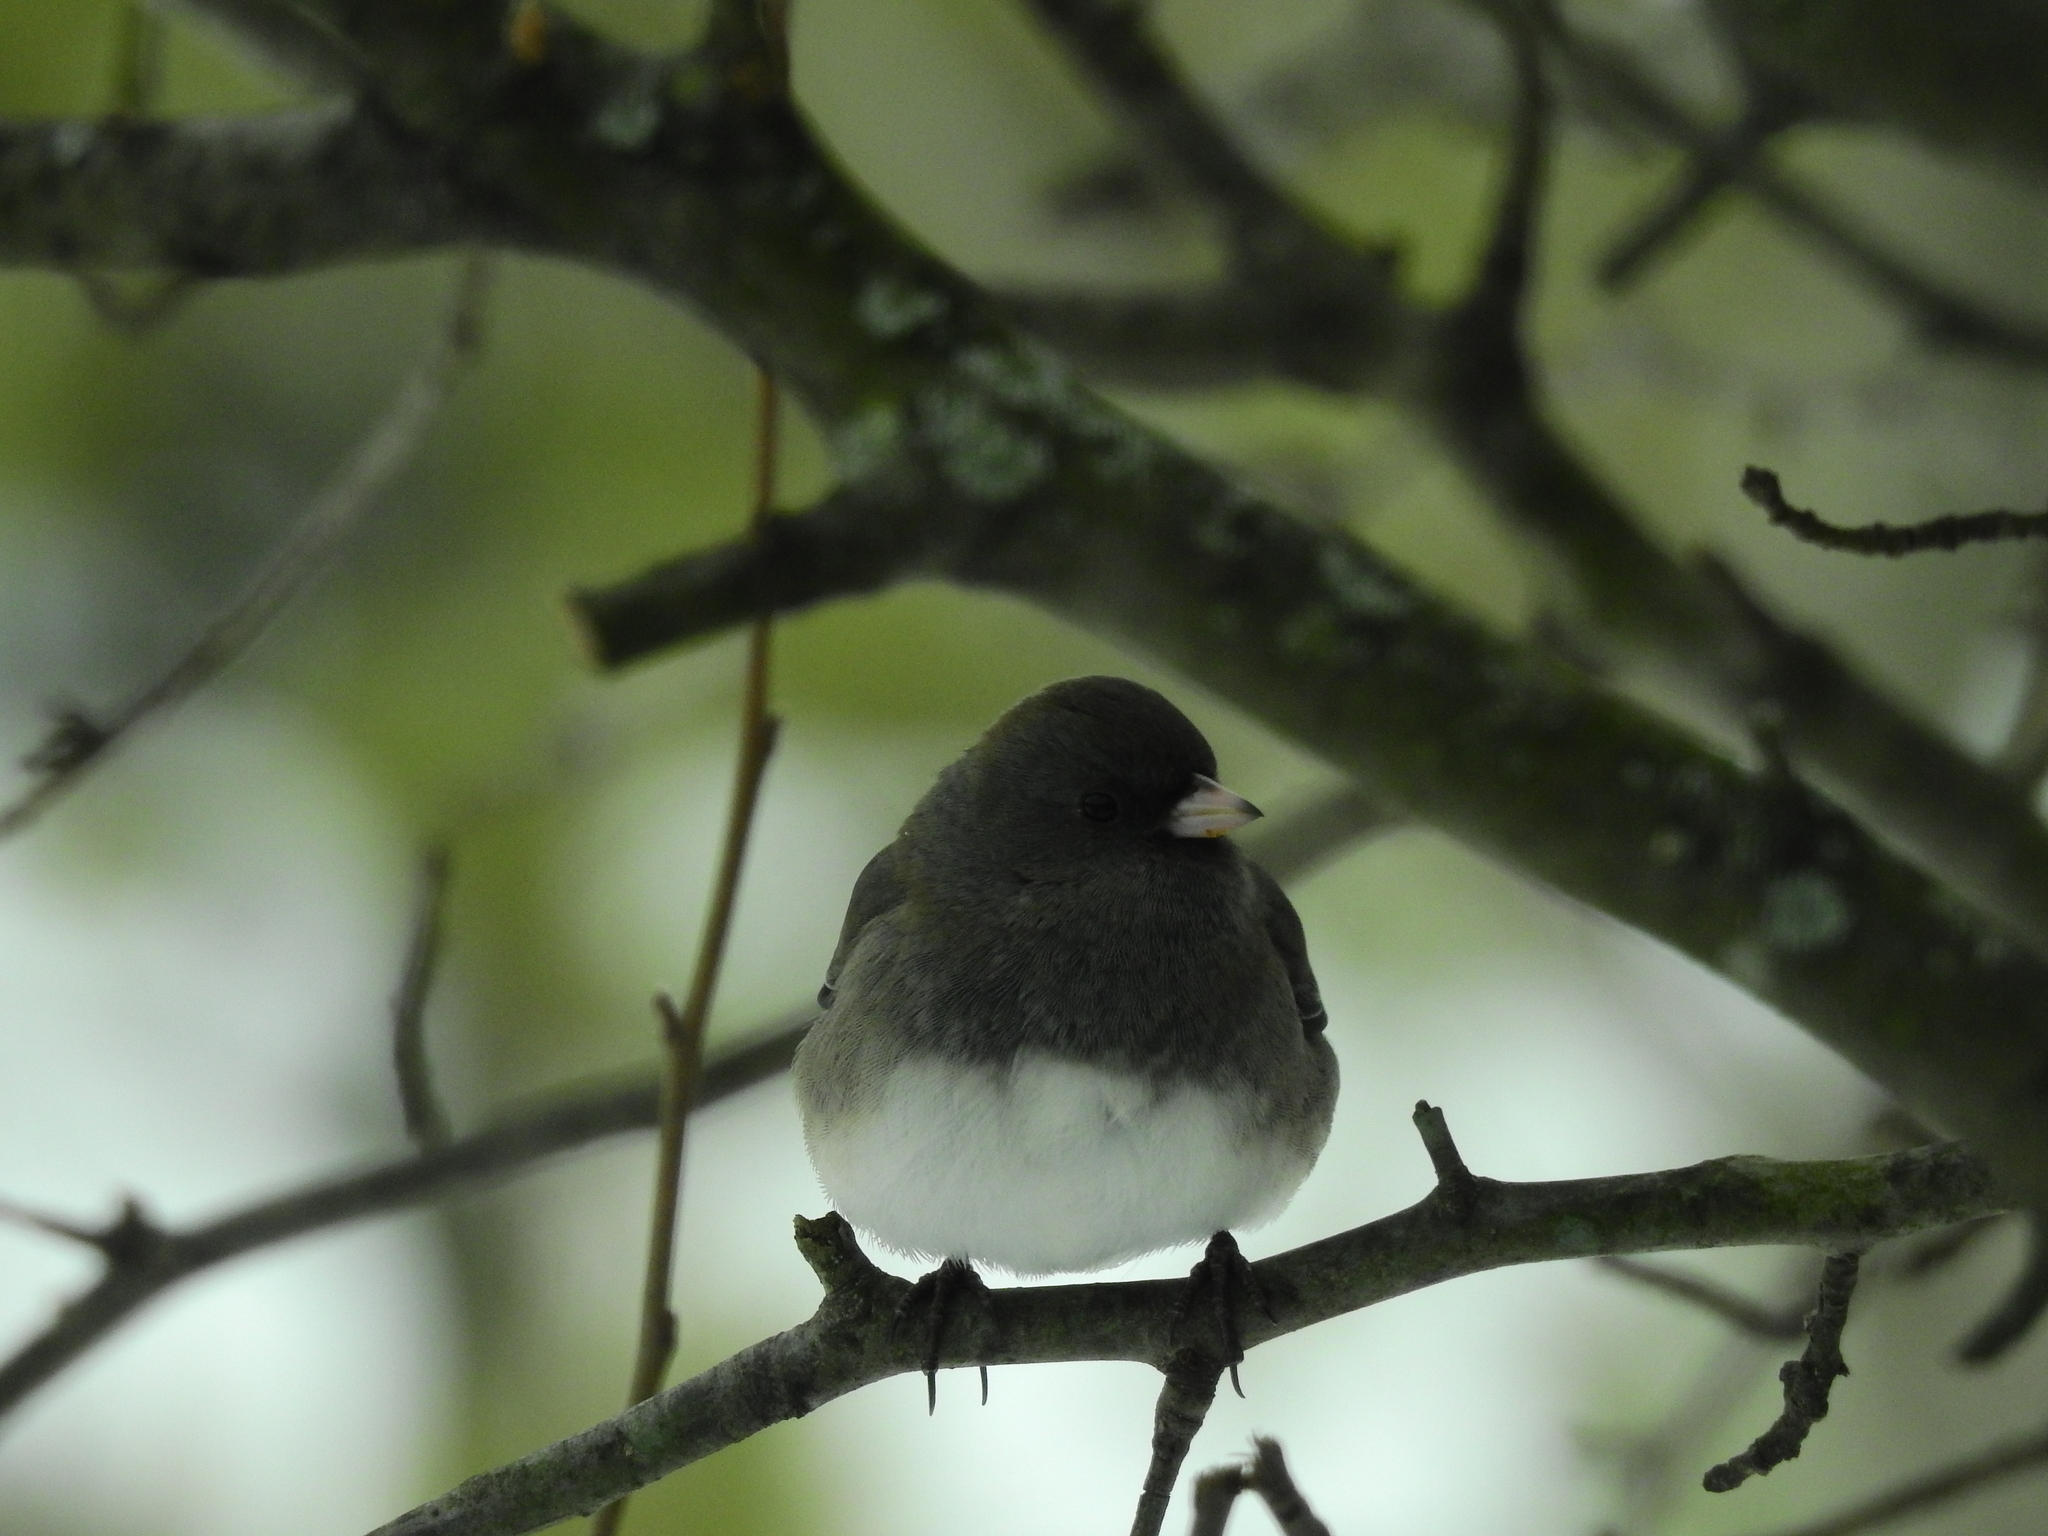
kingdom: Animalia
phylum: Chordata
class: Aves
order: Passeriformes
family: Passerellidae
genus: Junco
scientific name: Junco hyemalis
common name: Dark-eyed junco
